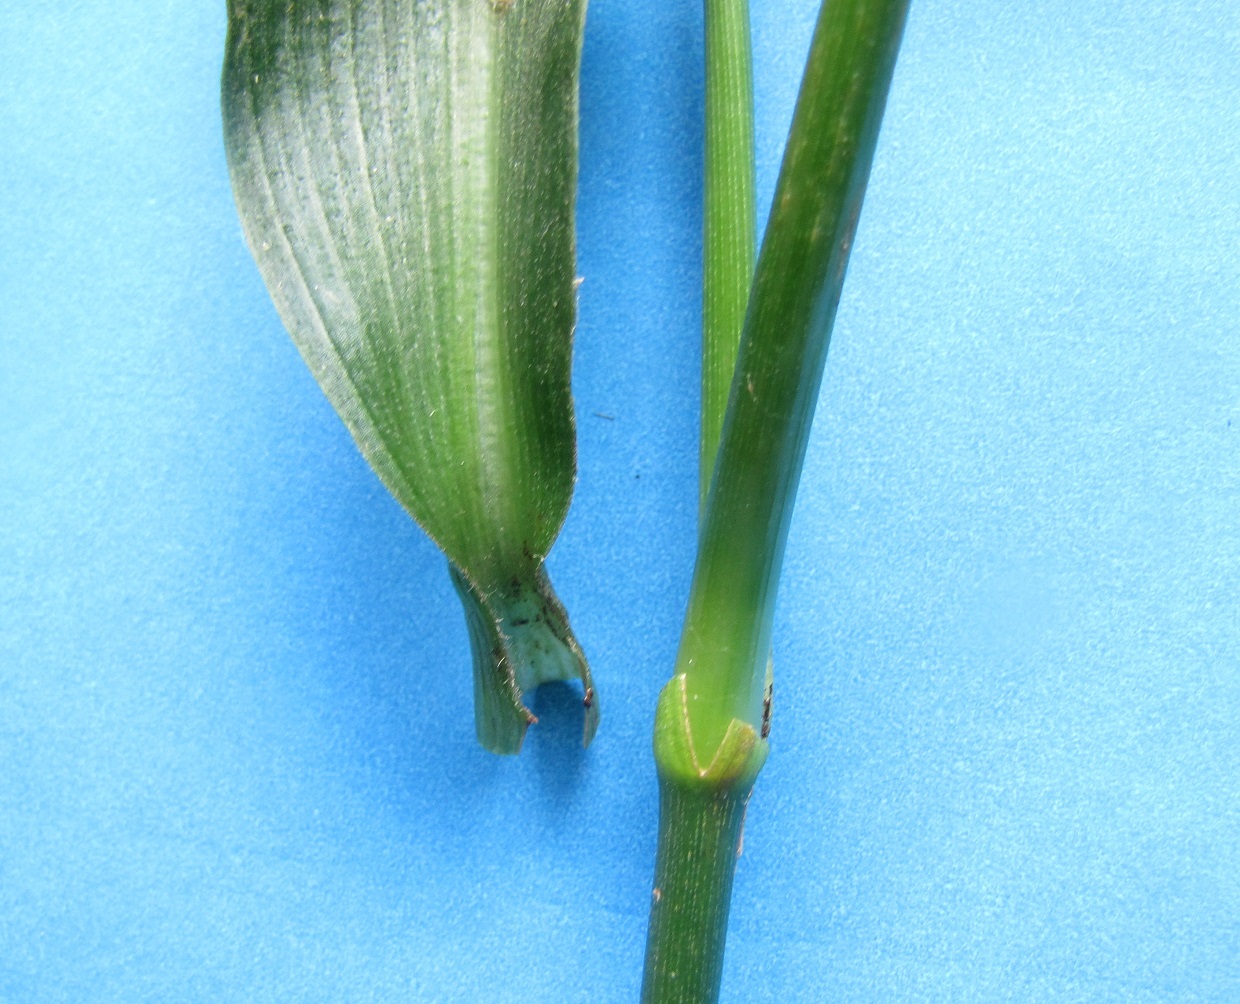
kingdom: Plantae
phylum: Tracheophyta
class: Liliopsida
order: Commelinales
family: Commelinaceae
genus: Tradescantia
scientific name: Tradescantia subaspera
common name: Wide-leaf spiderwort
